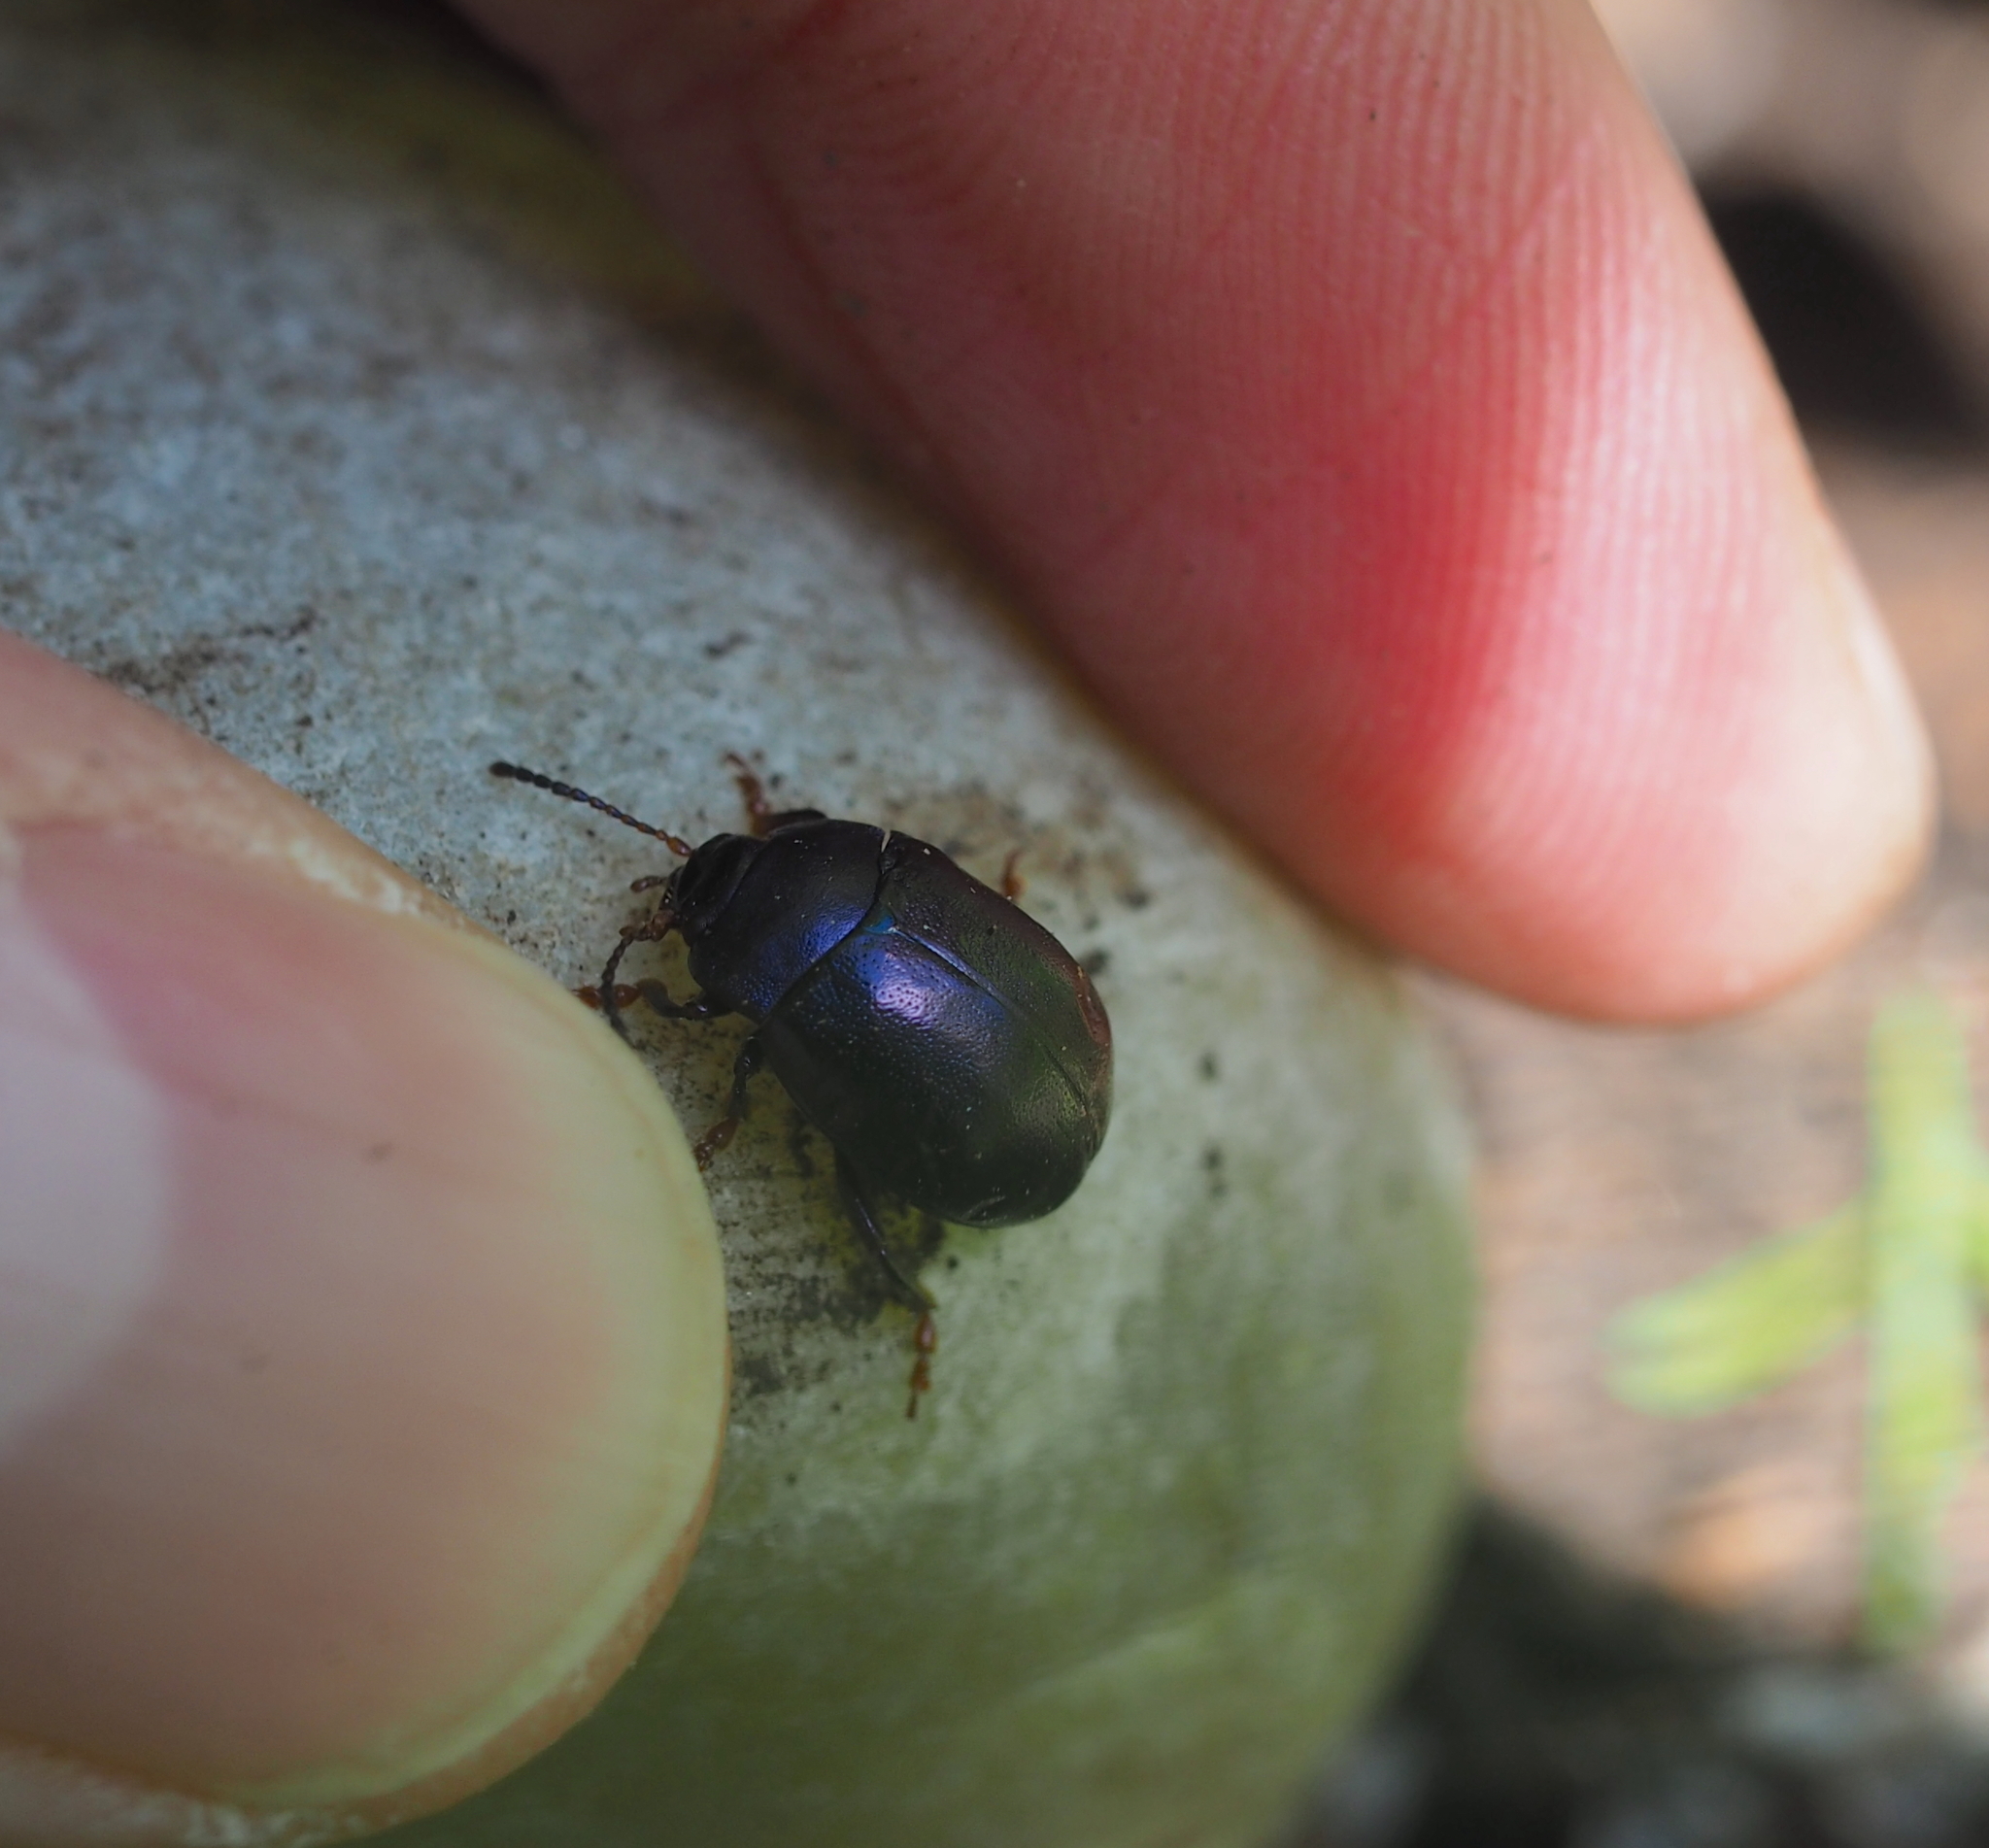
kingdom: Animalia
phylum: Arthropoda
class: Insecta
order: Coleoptera
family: Chrysomelidae
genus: Chrysolina
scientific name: Chrysolina sturmi
